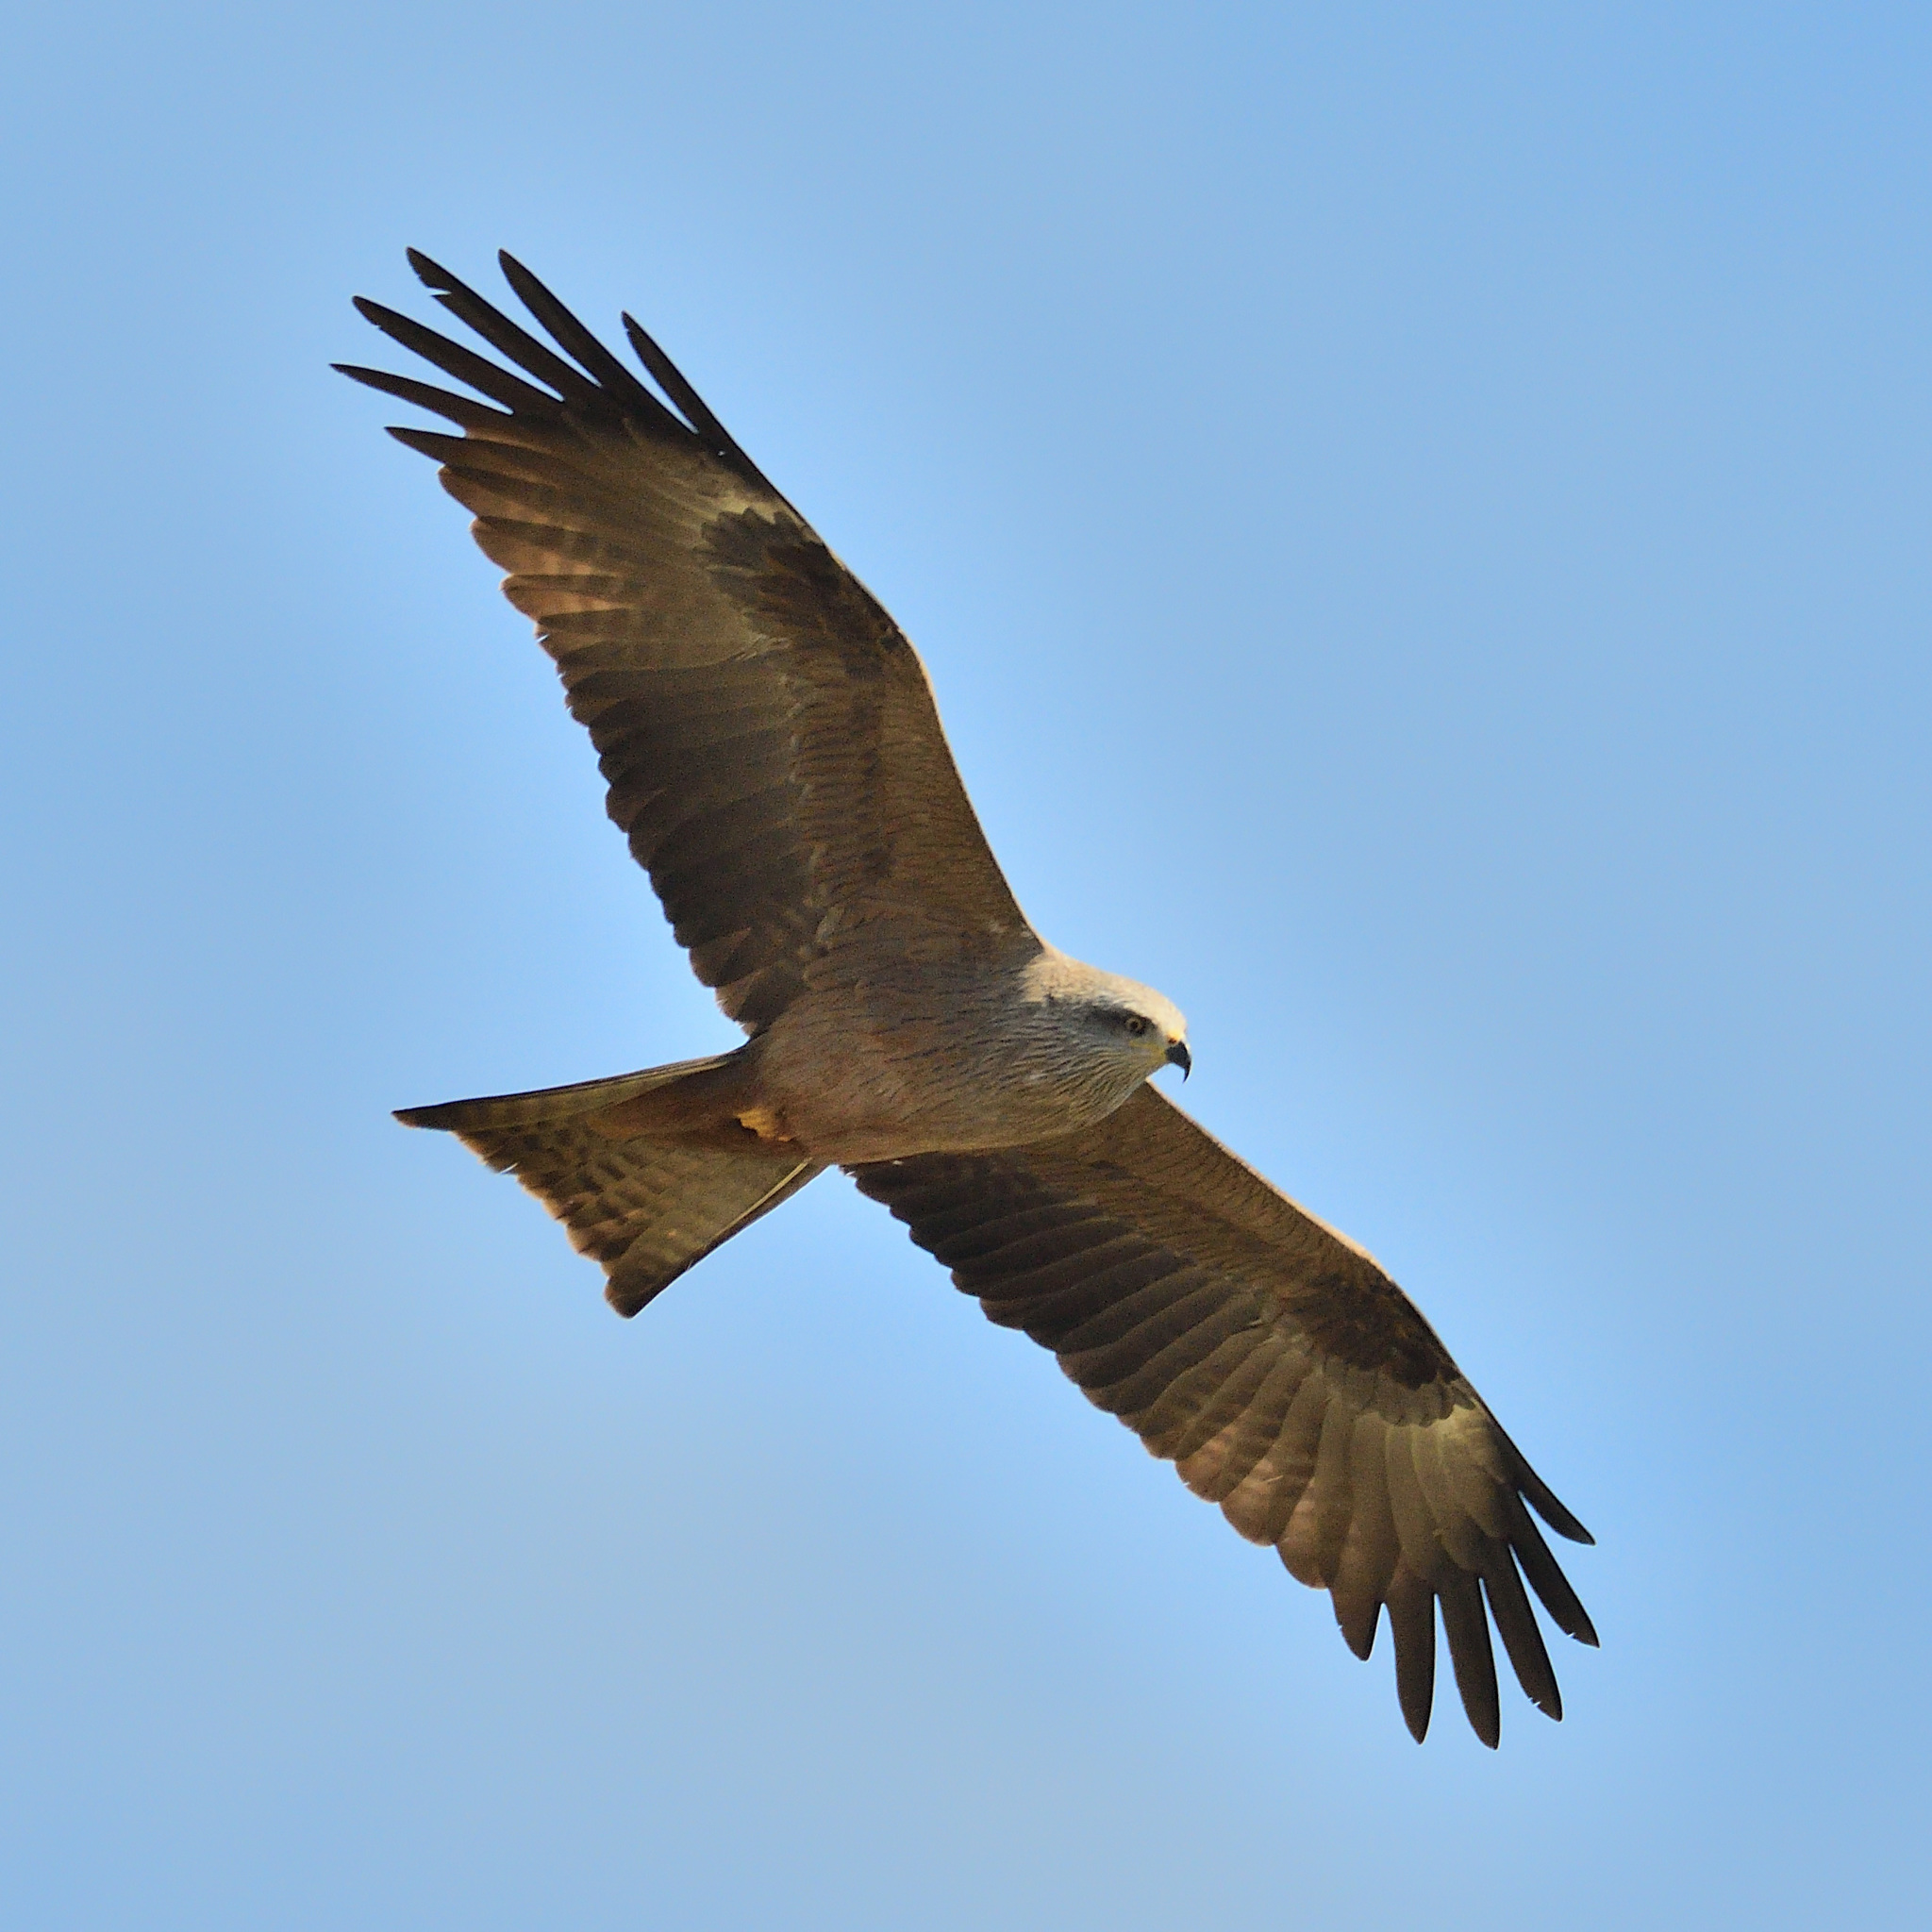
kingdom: Animalia
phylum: Chordata
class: Aves
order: Accipitriformes
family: Accipitridae
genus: Milvus
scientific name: Milvus migrans
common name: Black kite
